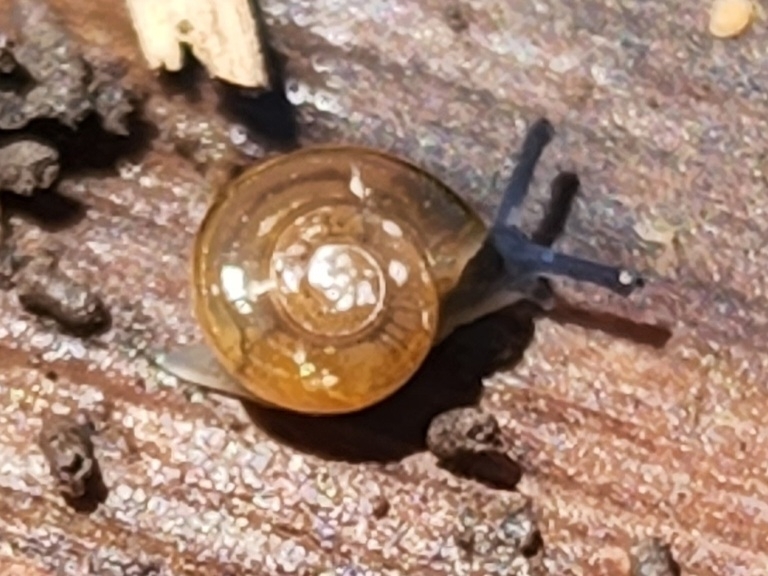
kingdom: Animalia
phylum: Mollusca
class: Gastropoda
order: Stylommatophora
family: Oxychilidae
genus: Oxychilus
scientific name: Oxychilus alliarius
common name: Garlic glass-snail
